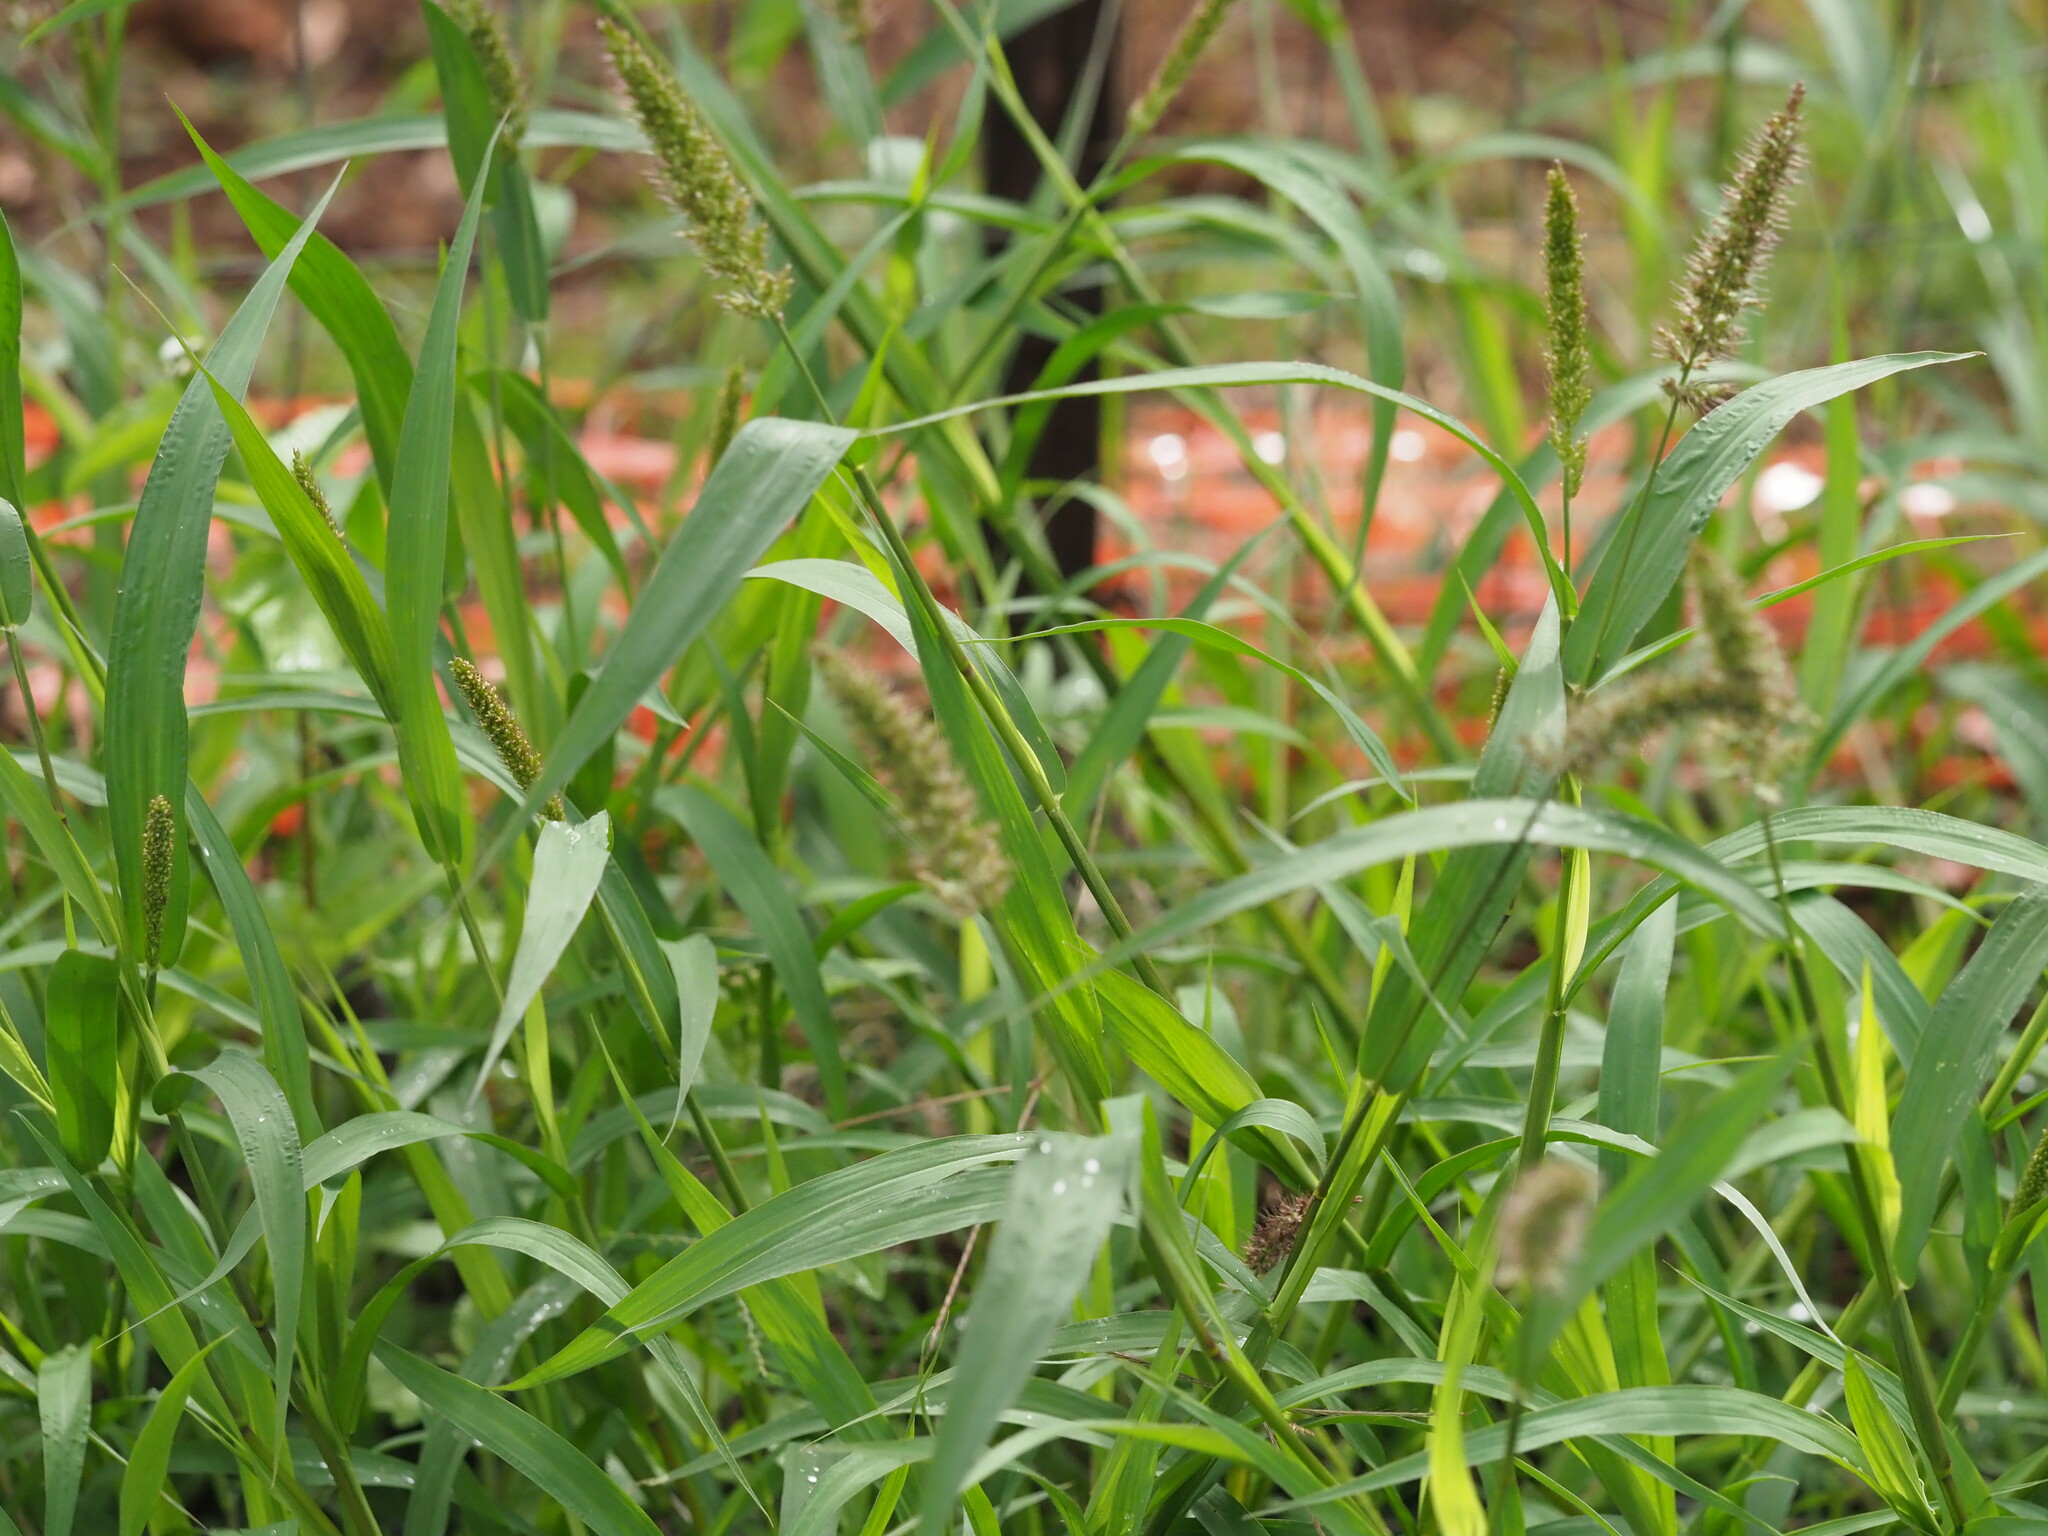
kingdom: Plantae
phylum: Tracheophyta
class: Liliopsida
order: Poales
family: Poaceae
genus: Setaria
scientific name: Setaria adhaerens
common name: Adherent bristle-grass
